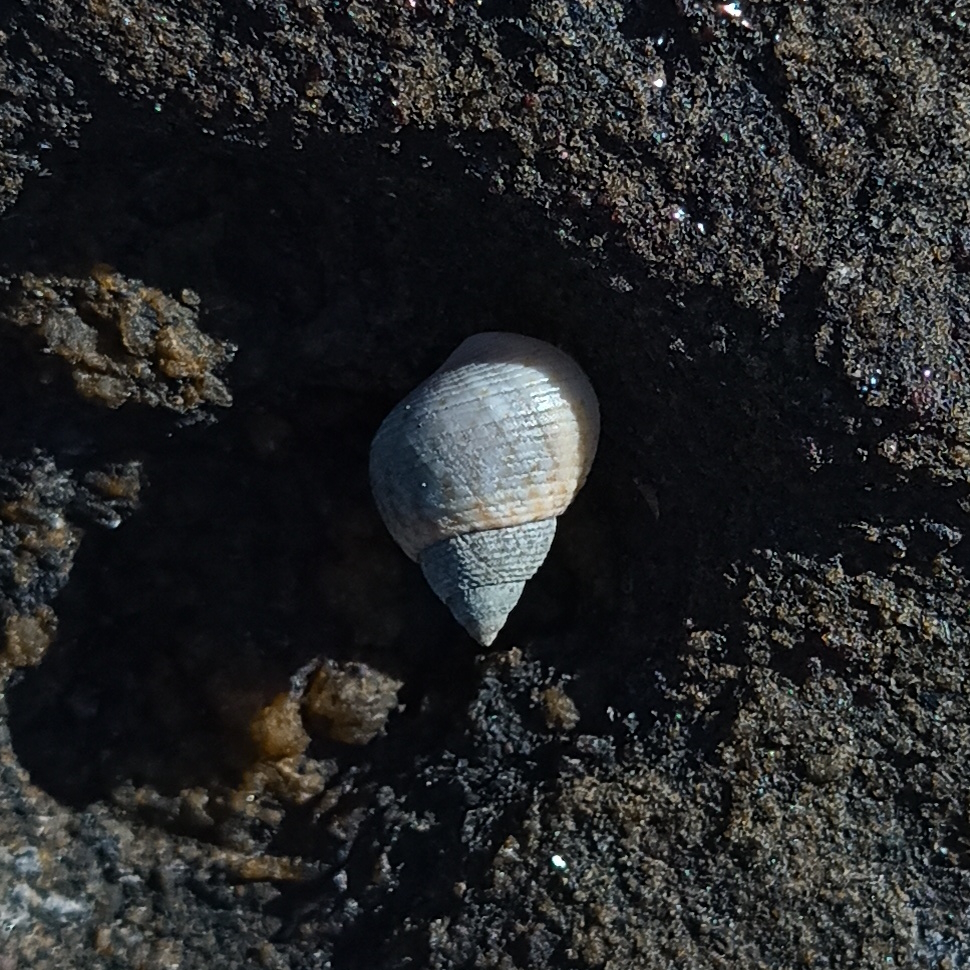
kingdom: Animalia
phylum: Mollusca
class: Gastropoda
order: Littorinimorpha
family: Littorinidae
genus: Littoraria
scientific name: Littoraria flava
